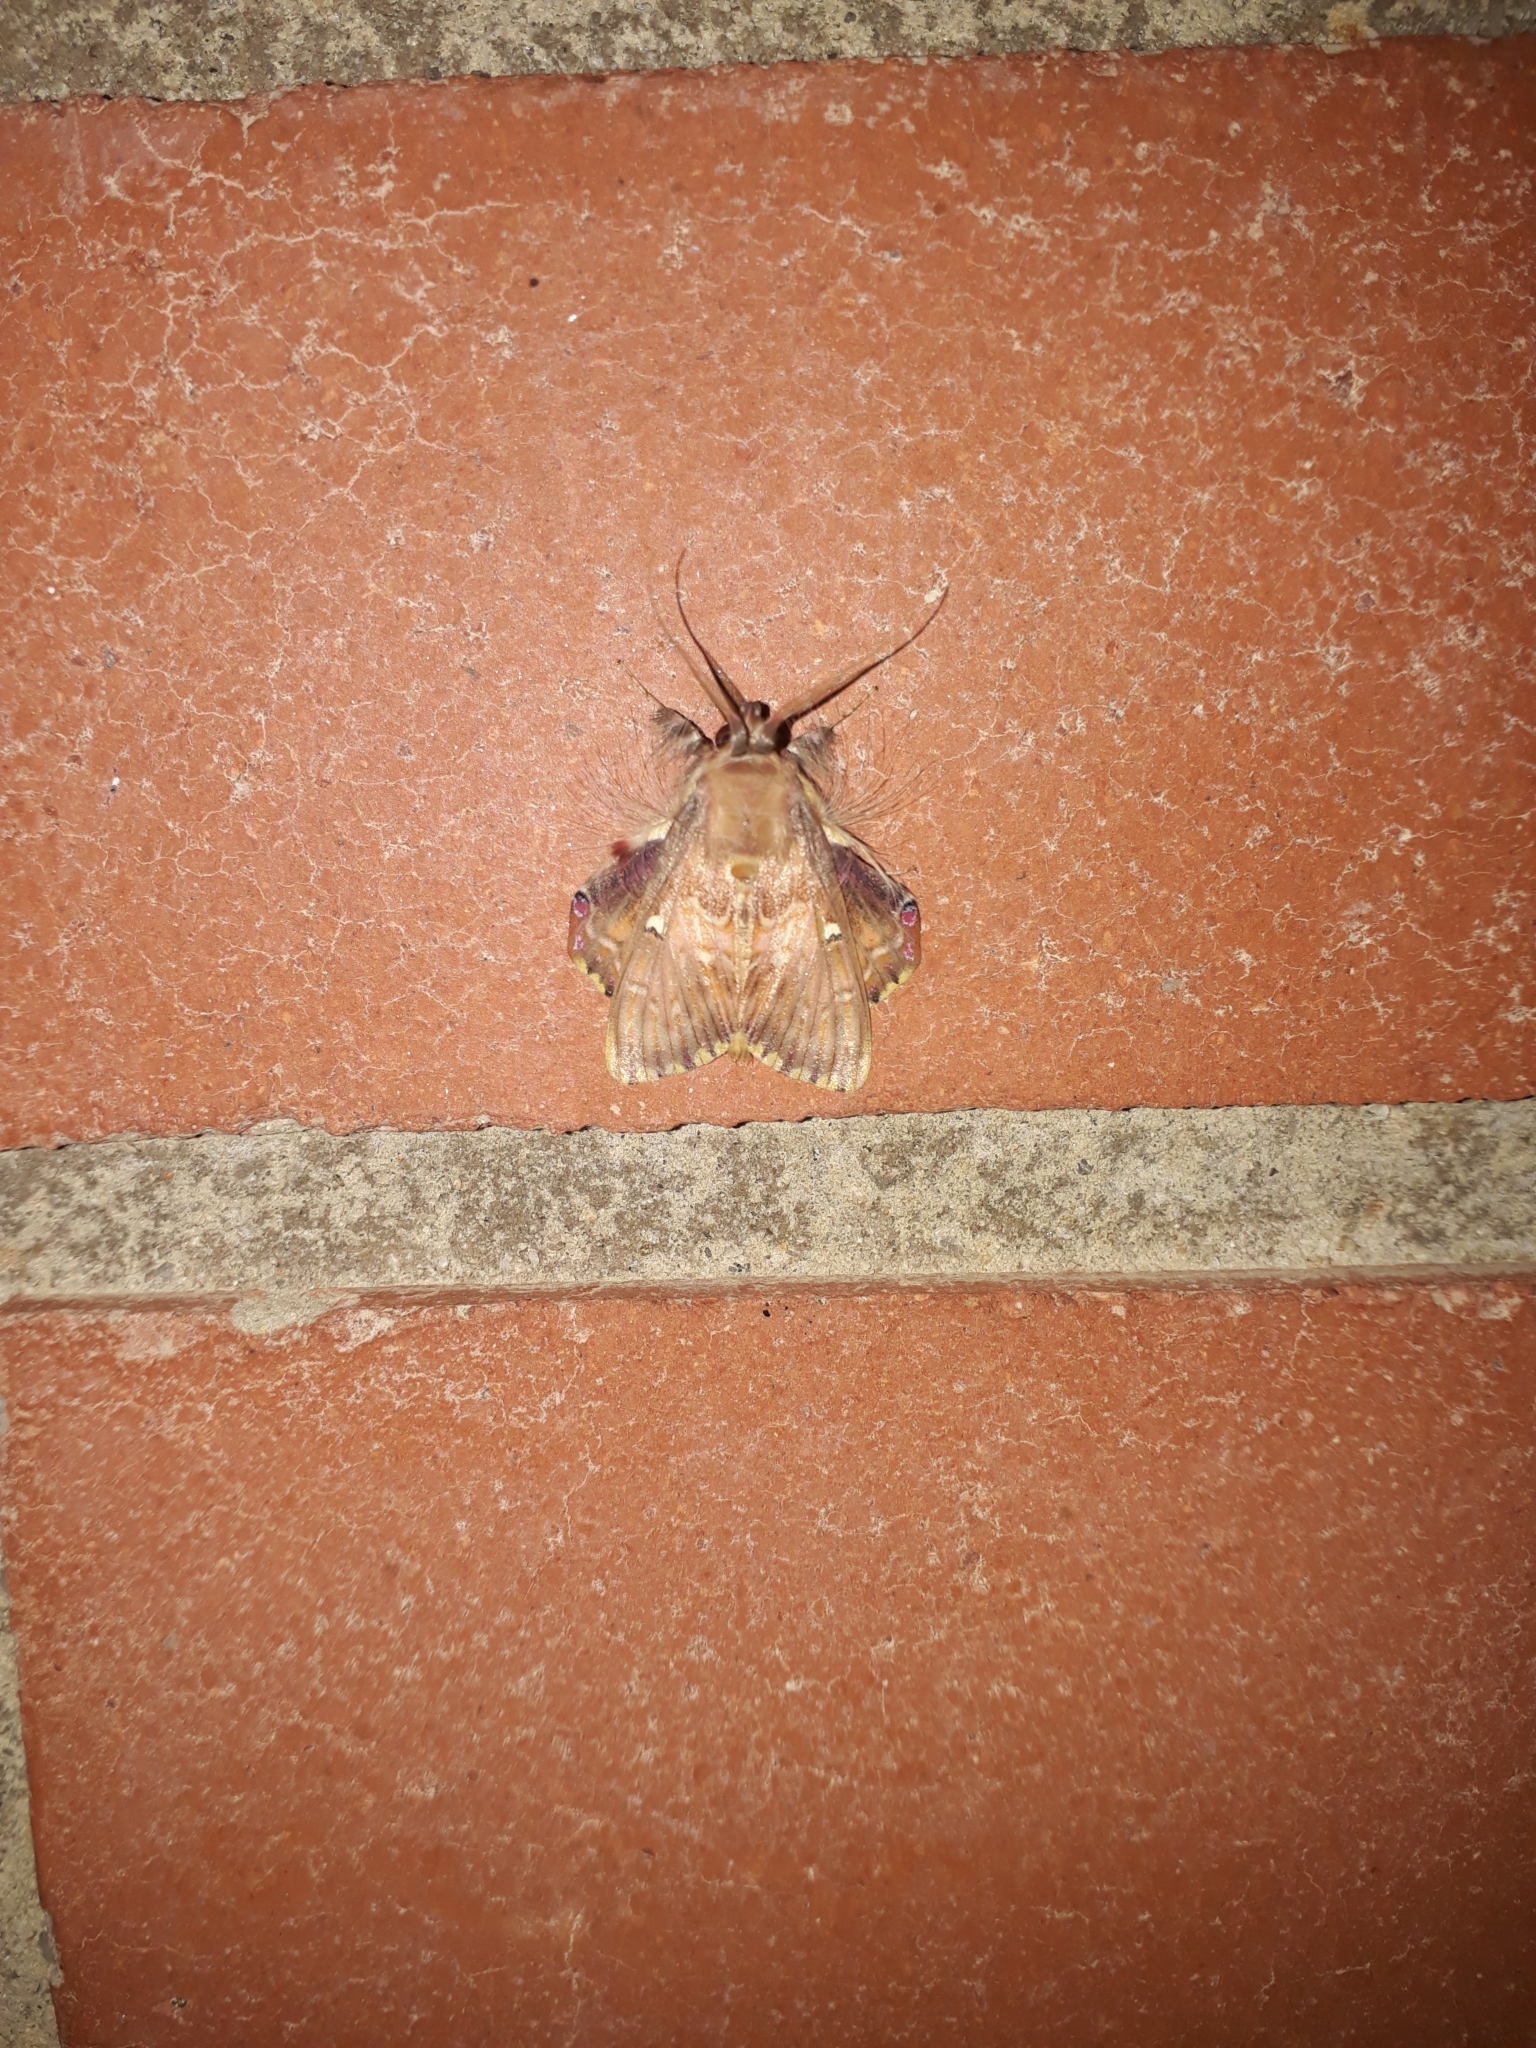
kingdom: Animalia
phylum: Arthropoda
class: Insecta
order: Lepidoptera
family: Erebidae
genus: Sosxetra
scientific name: Sosxetra grata
